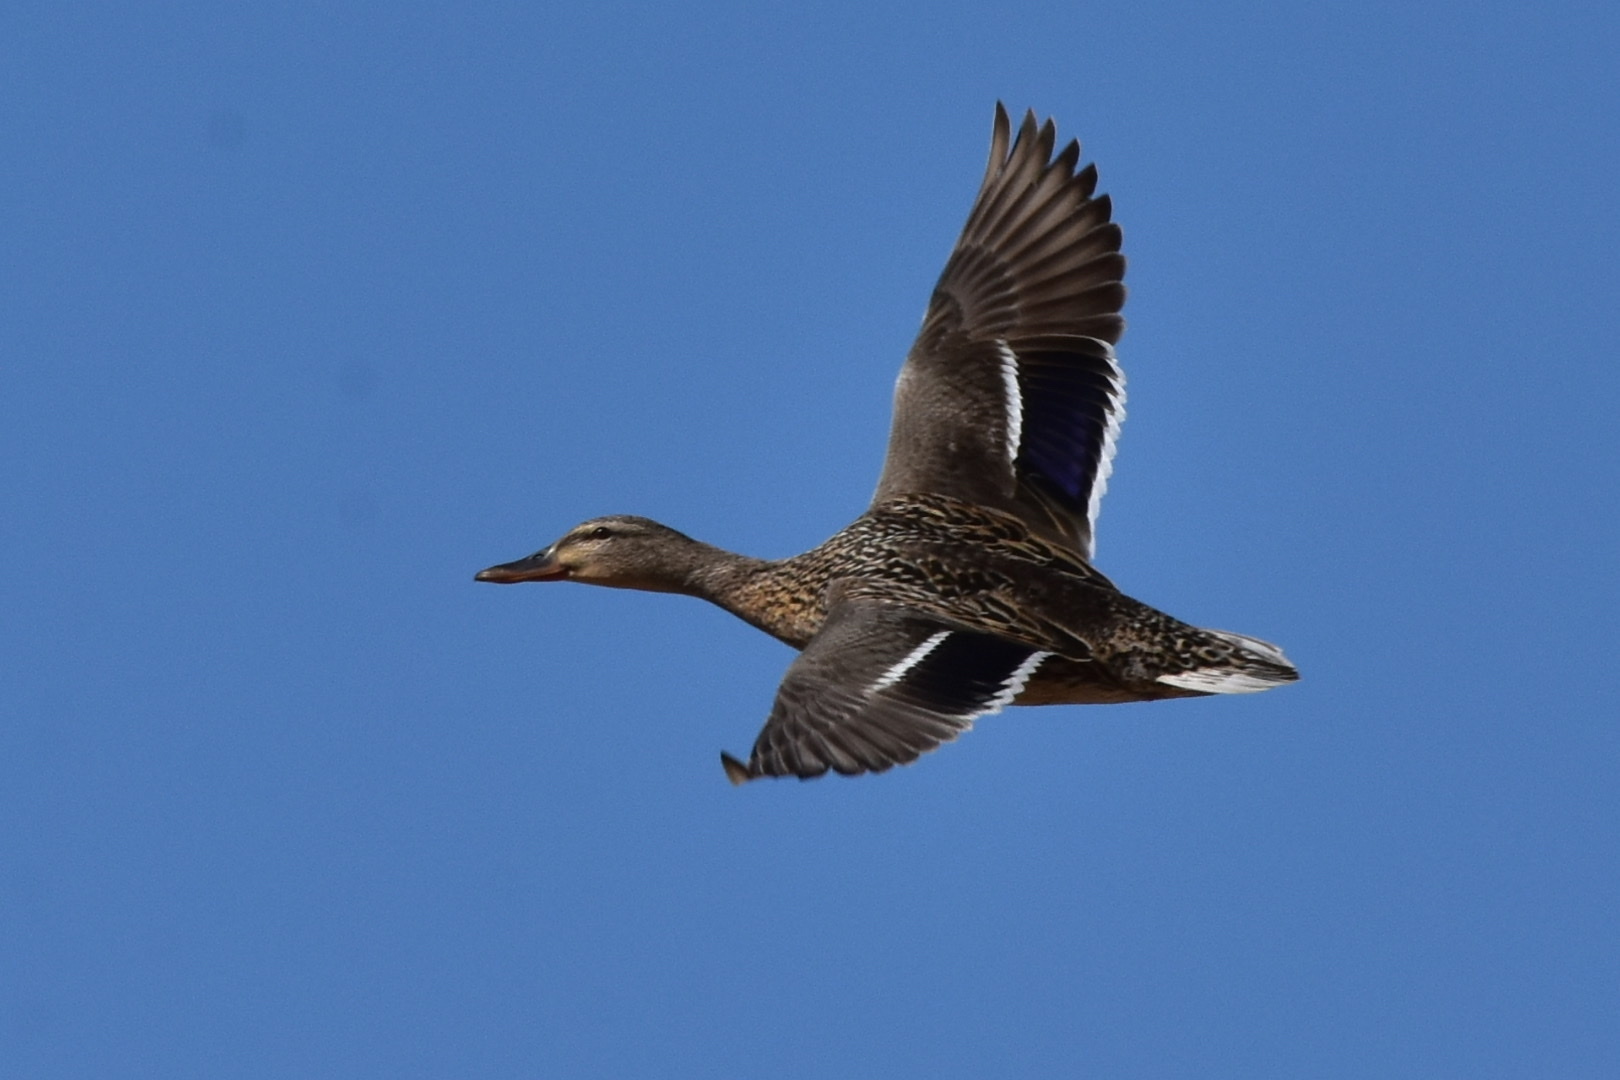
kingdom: Animalia
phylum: Chordata
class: Aves
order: Anseriformes
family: Anatidae
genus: Anas
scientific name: Anas platyrhynchos
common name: Mallard
